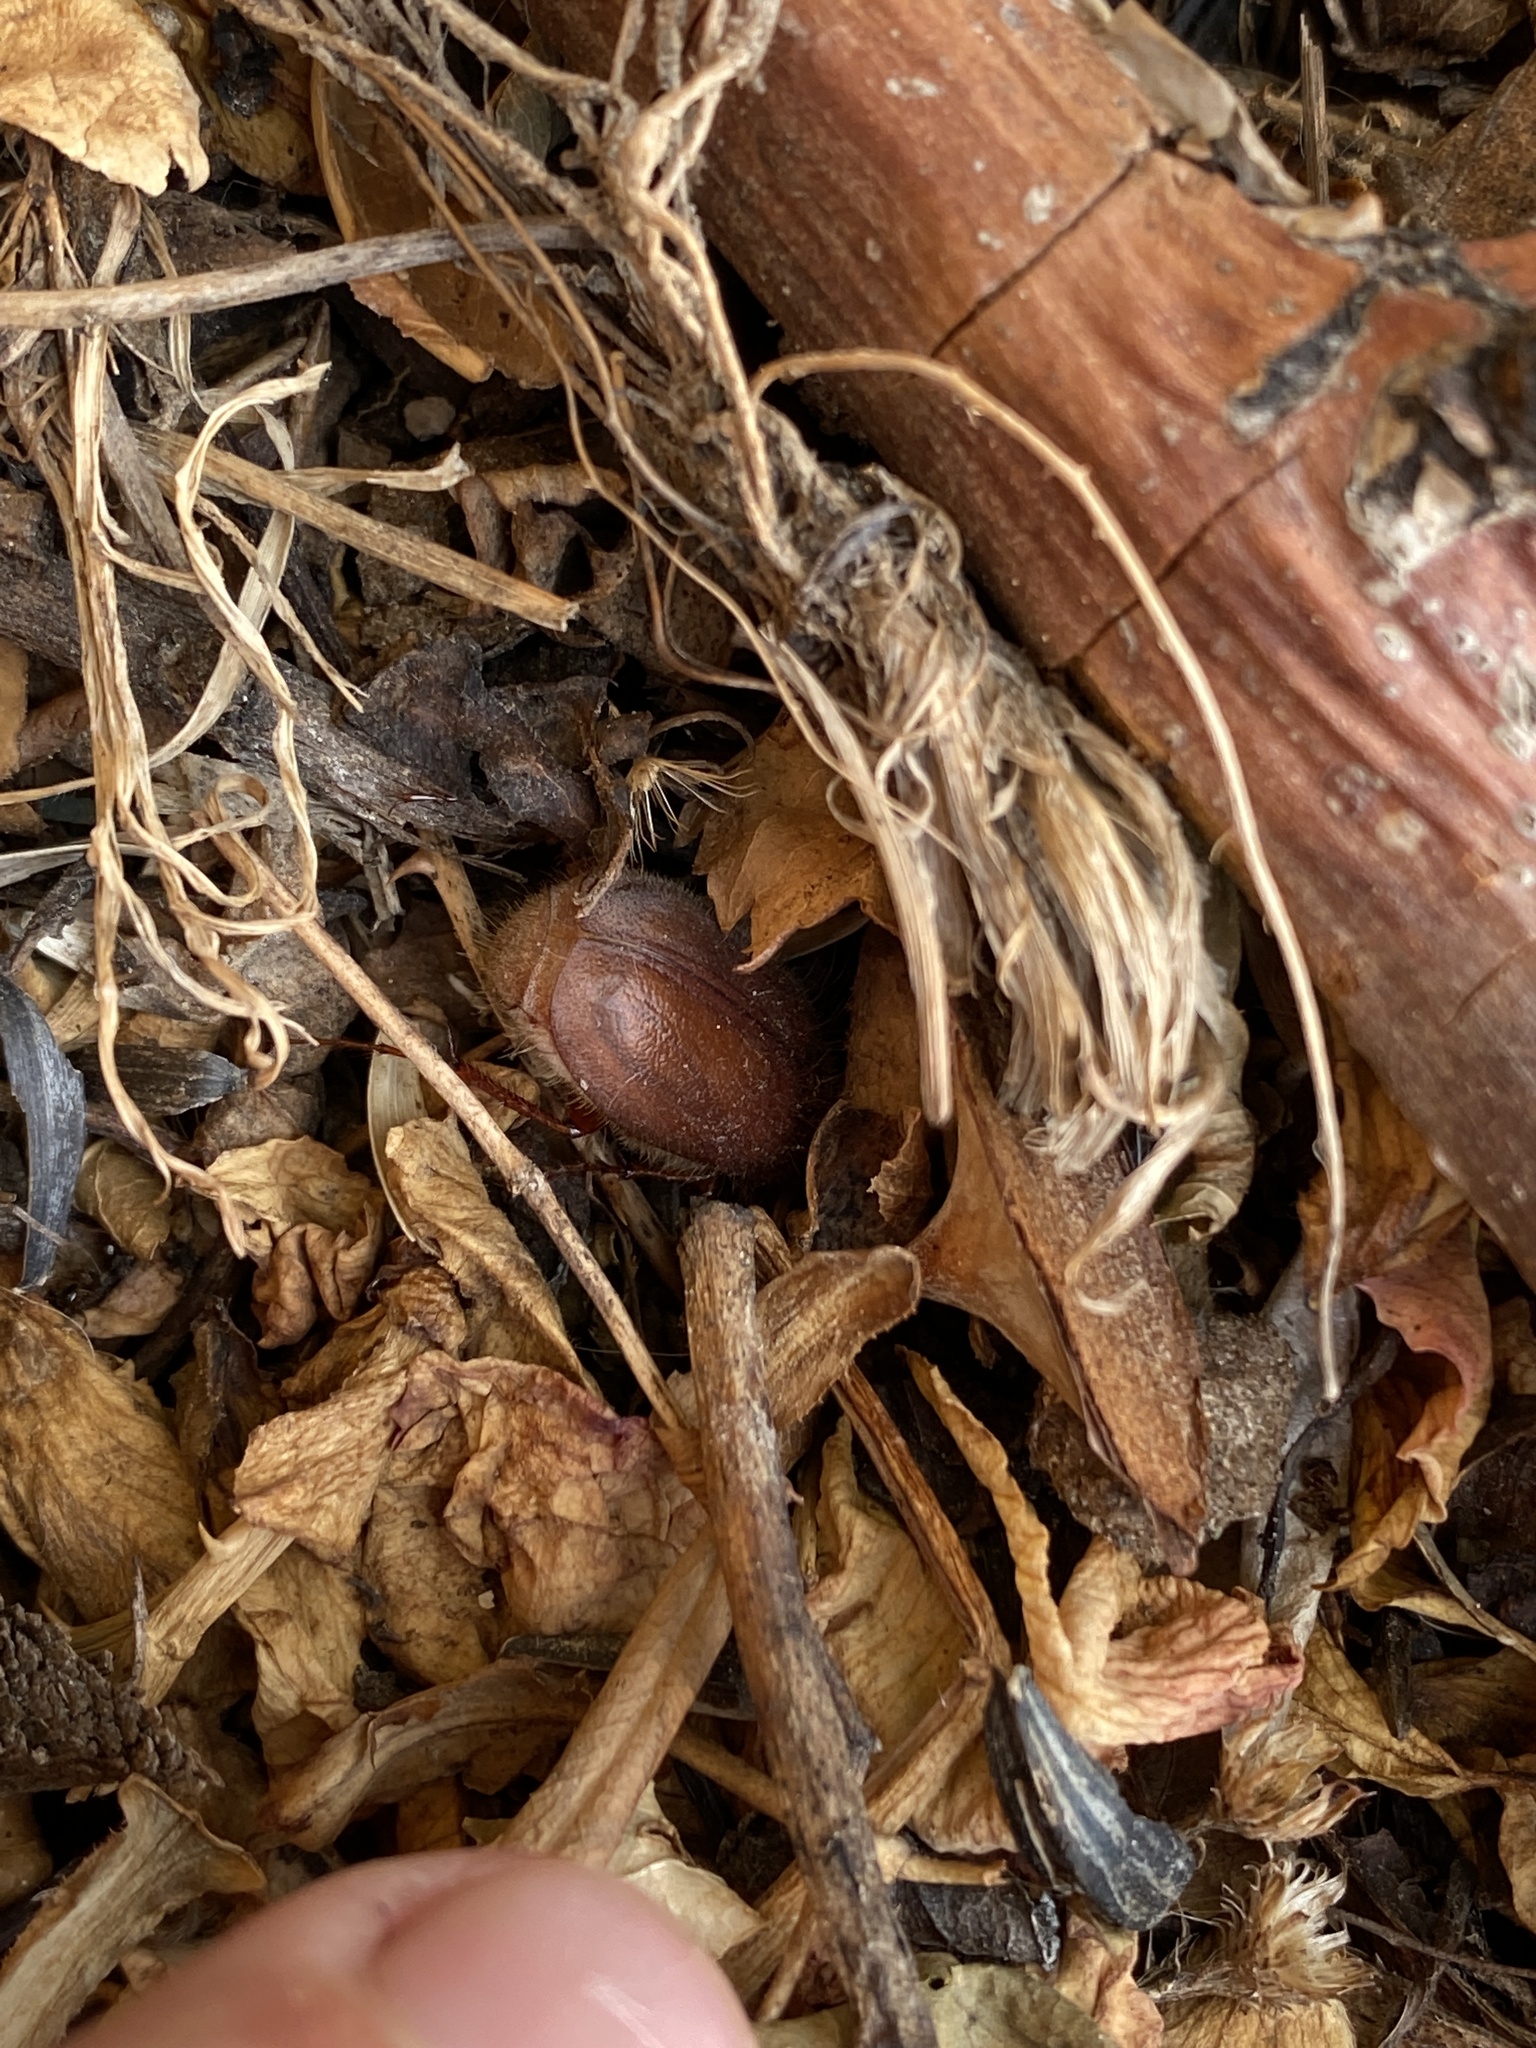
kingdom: Animalia
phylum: Arthropoda
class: Insecta
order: Coleoptera
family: Scarabaeidae
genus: Phyllophaga
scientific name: Phyllophaga
